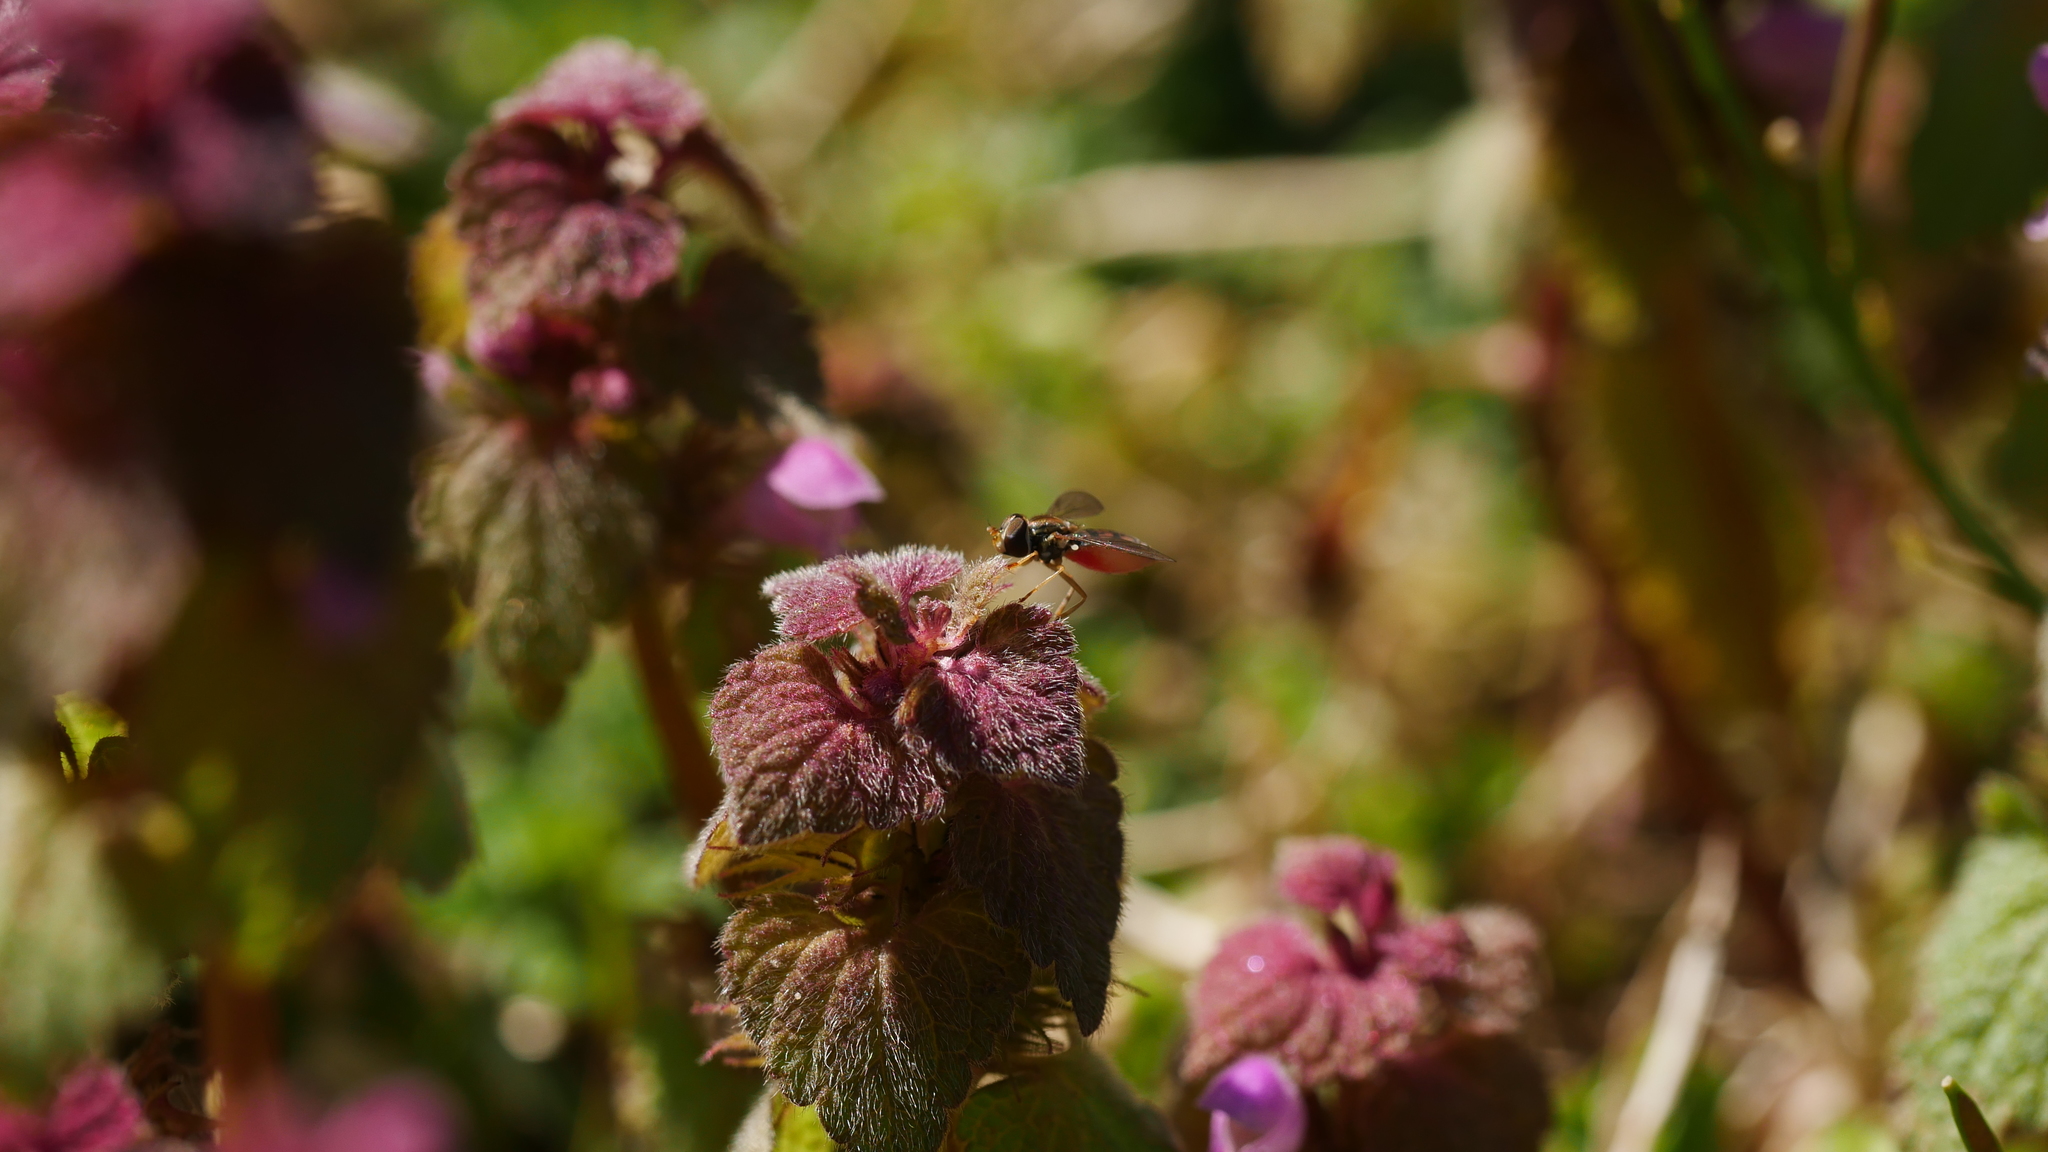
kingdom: Animalia
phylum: Arthropoda
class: Insecta
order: Diptera
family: Syrphidae
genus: Toxomerus
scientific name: Toxomerus marginatus
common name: Syrphid fly
